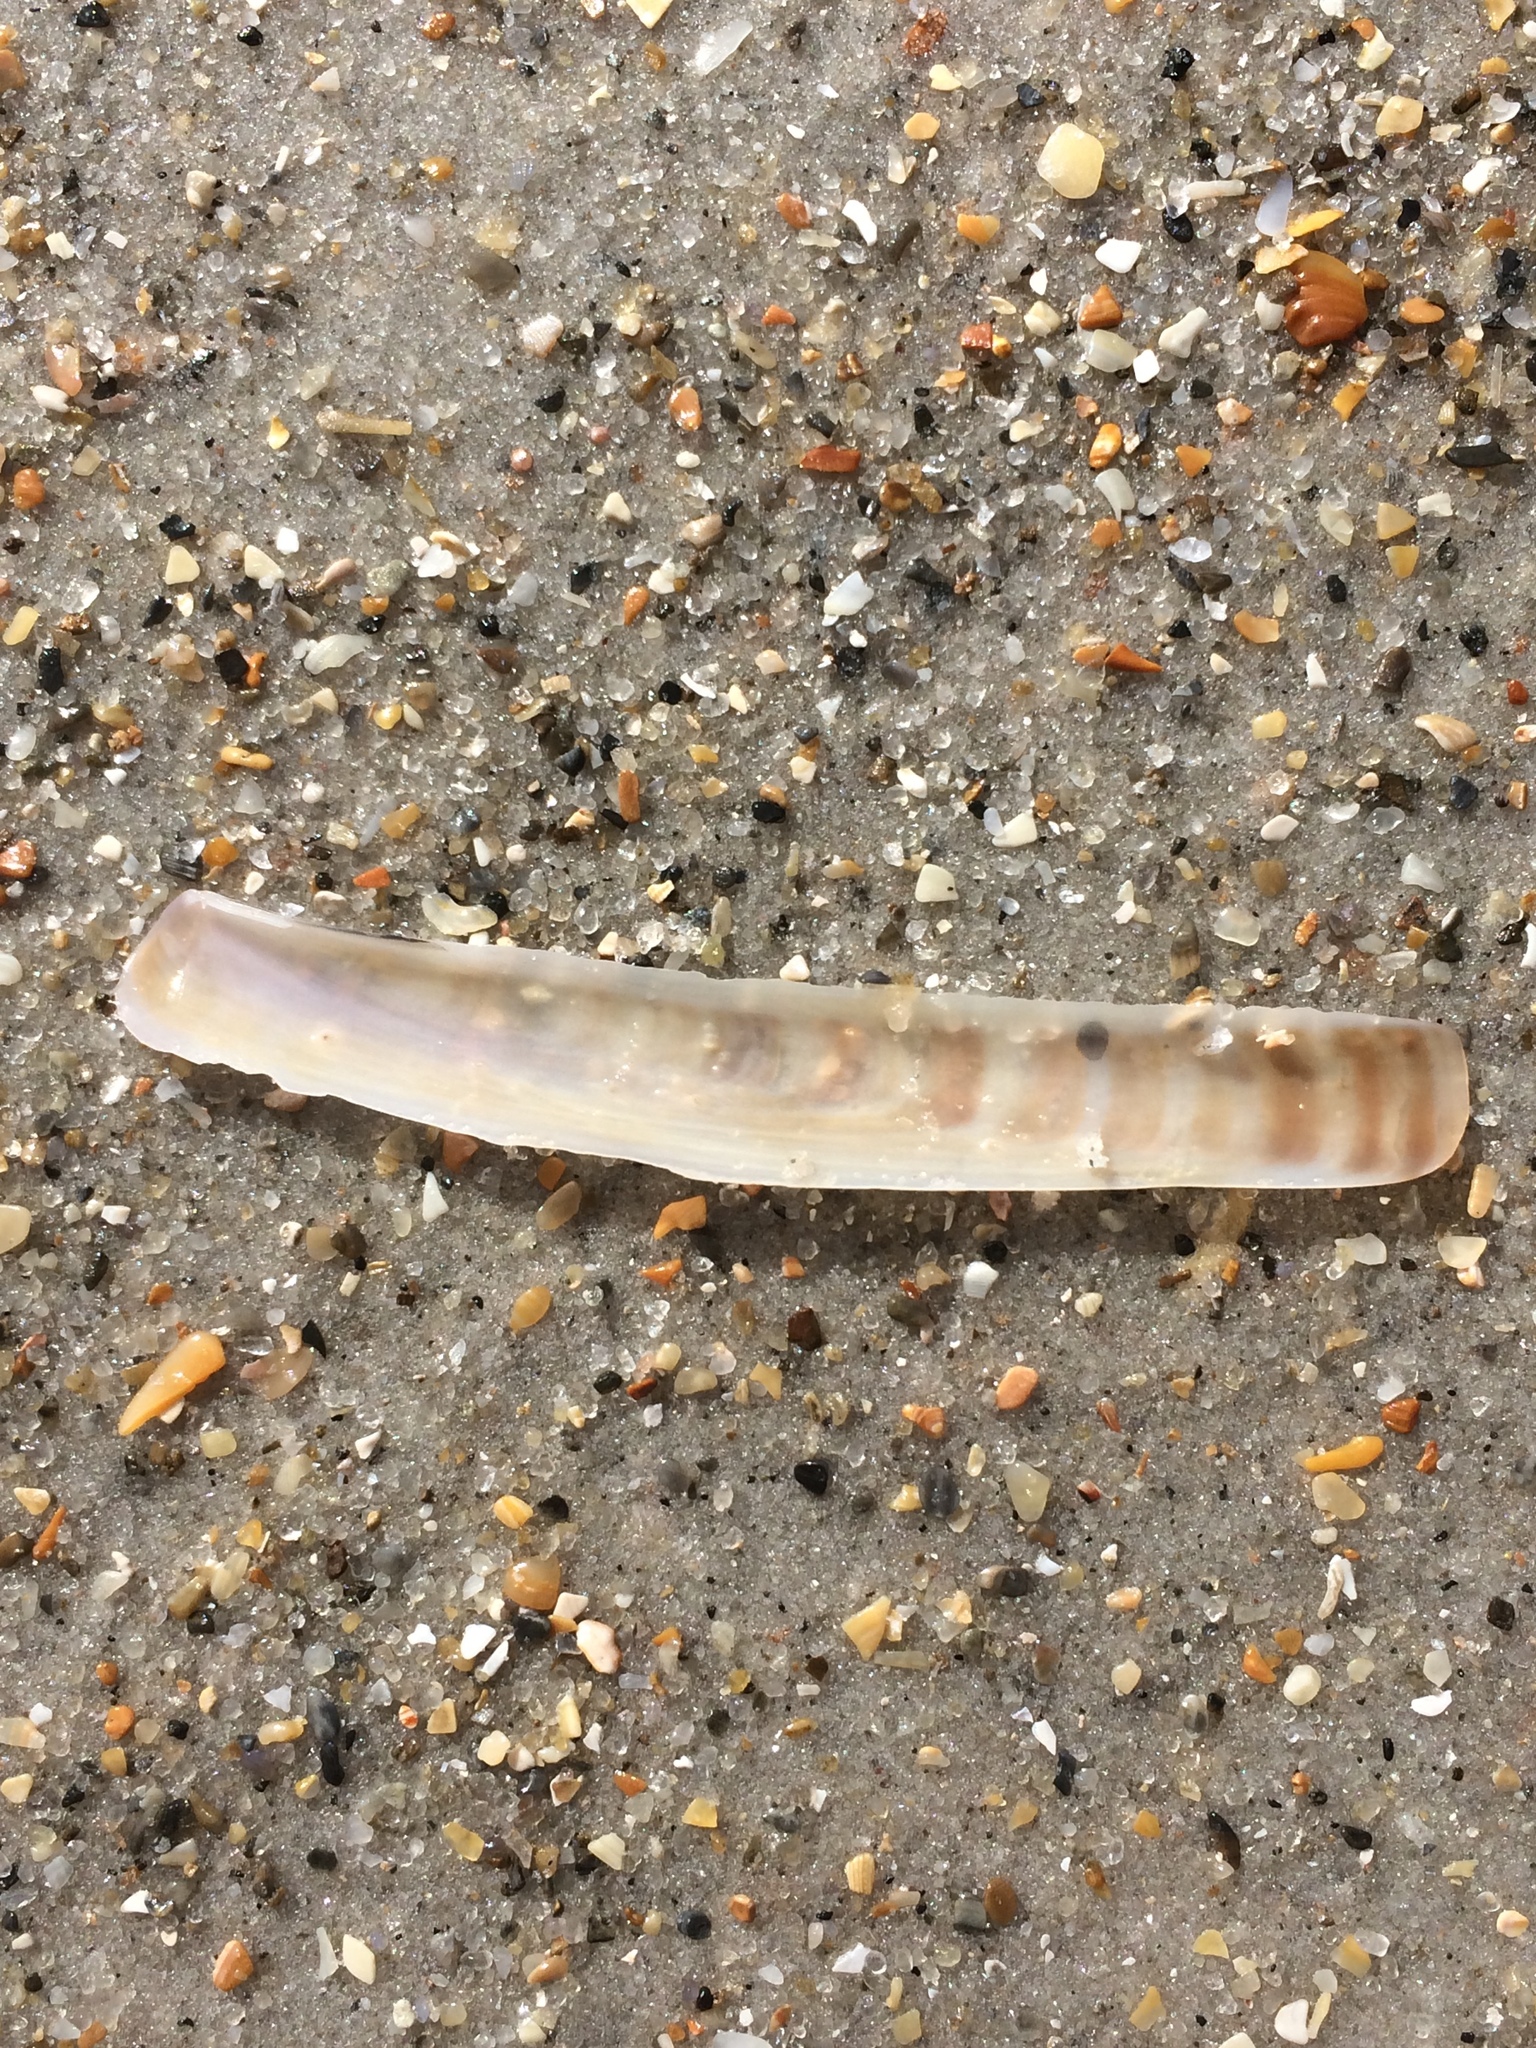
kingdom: Animalia
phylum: Mollusca
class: Bivalvia
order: Adapedonta
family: Pharidae
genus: Ensis
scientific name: Ensis leei
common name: American jack knife clam
